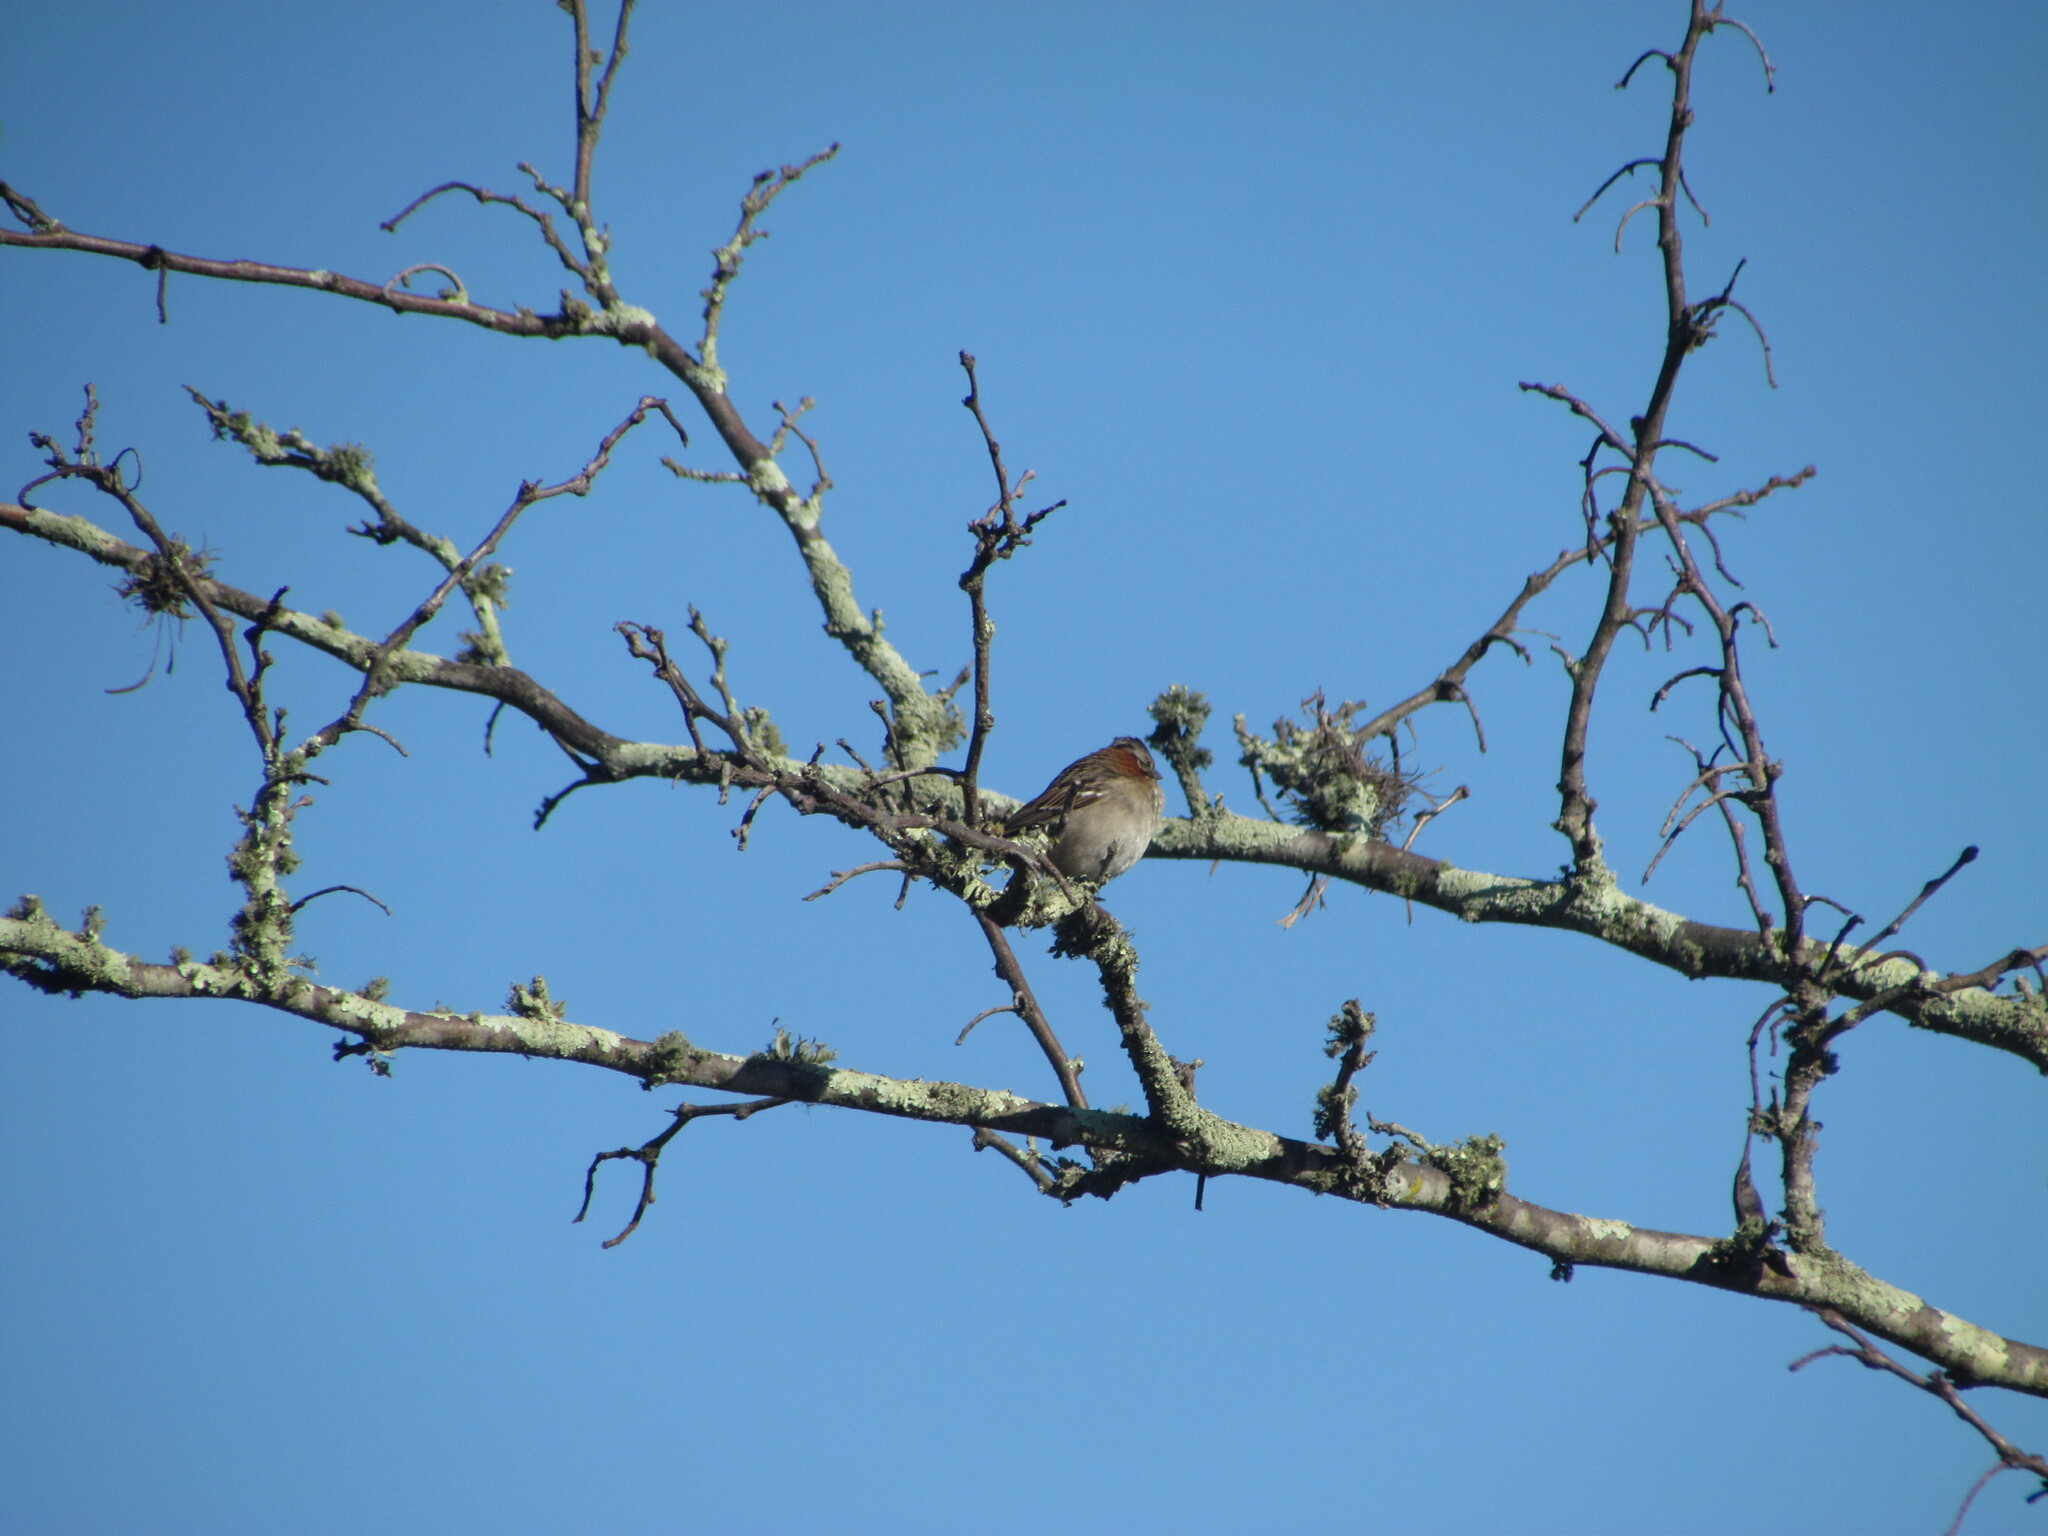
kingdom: Animalia
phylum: Chordata
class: Aves
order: Passeriformes
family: Passerellidae
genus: Zonotrichia
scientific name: Zonotrichia capensis
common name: Rufous-collared sparrow
